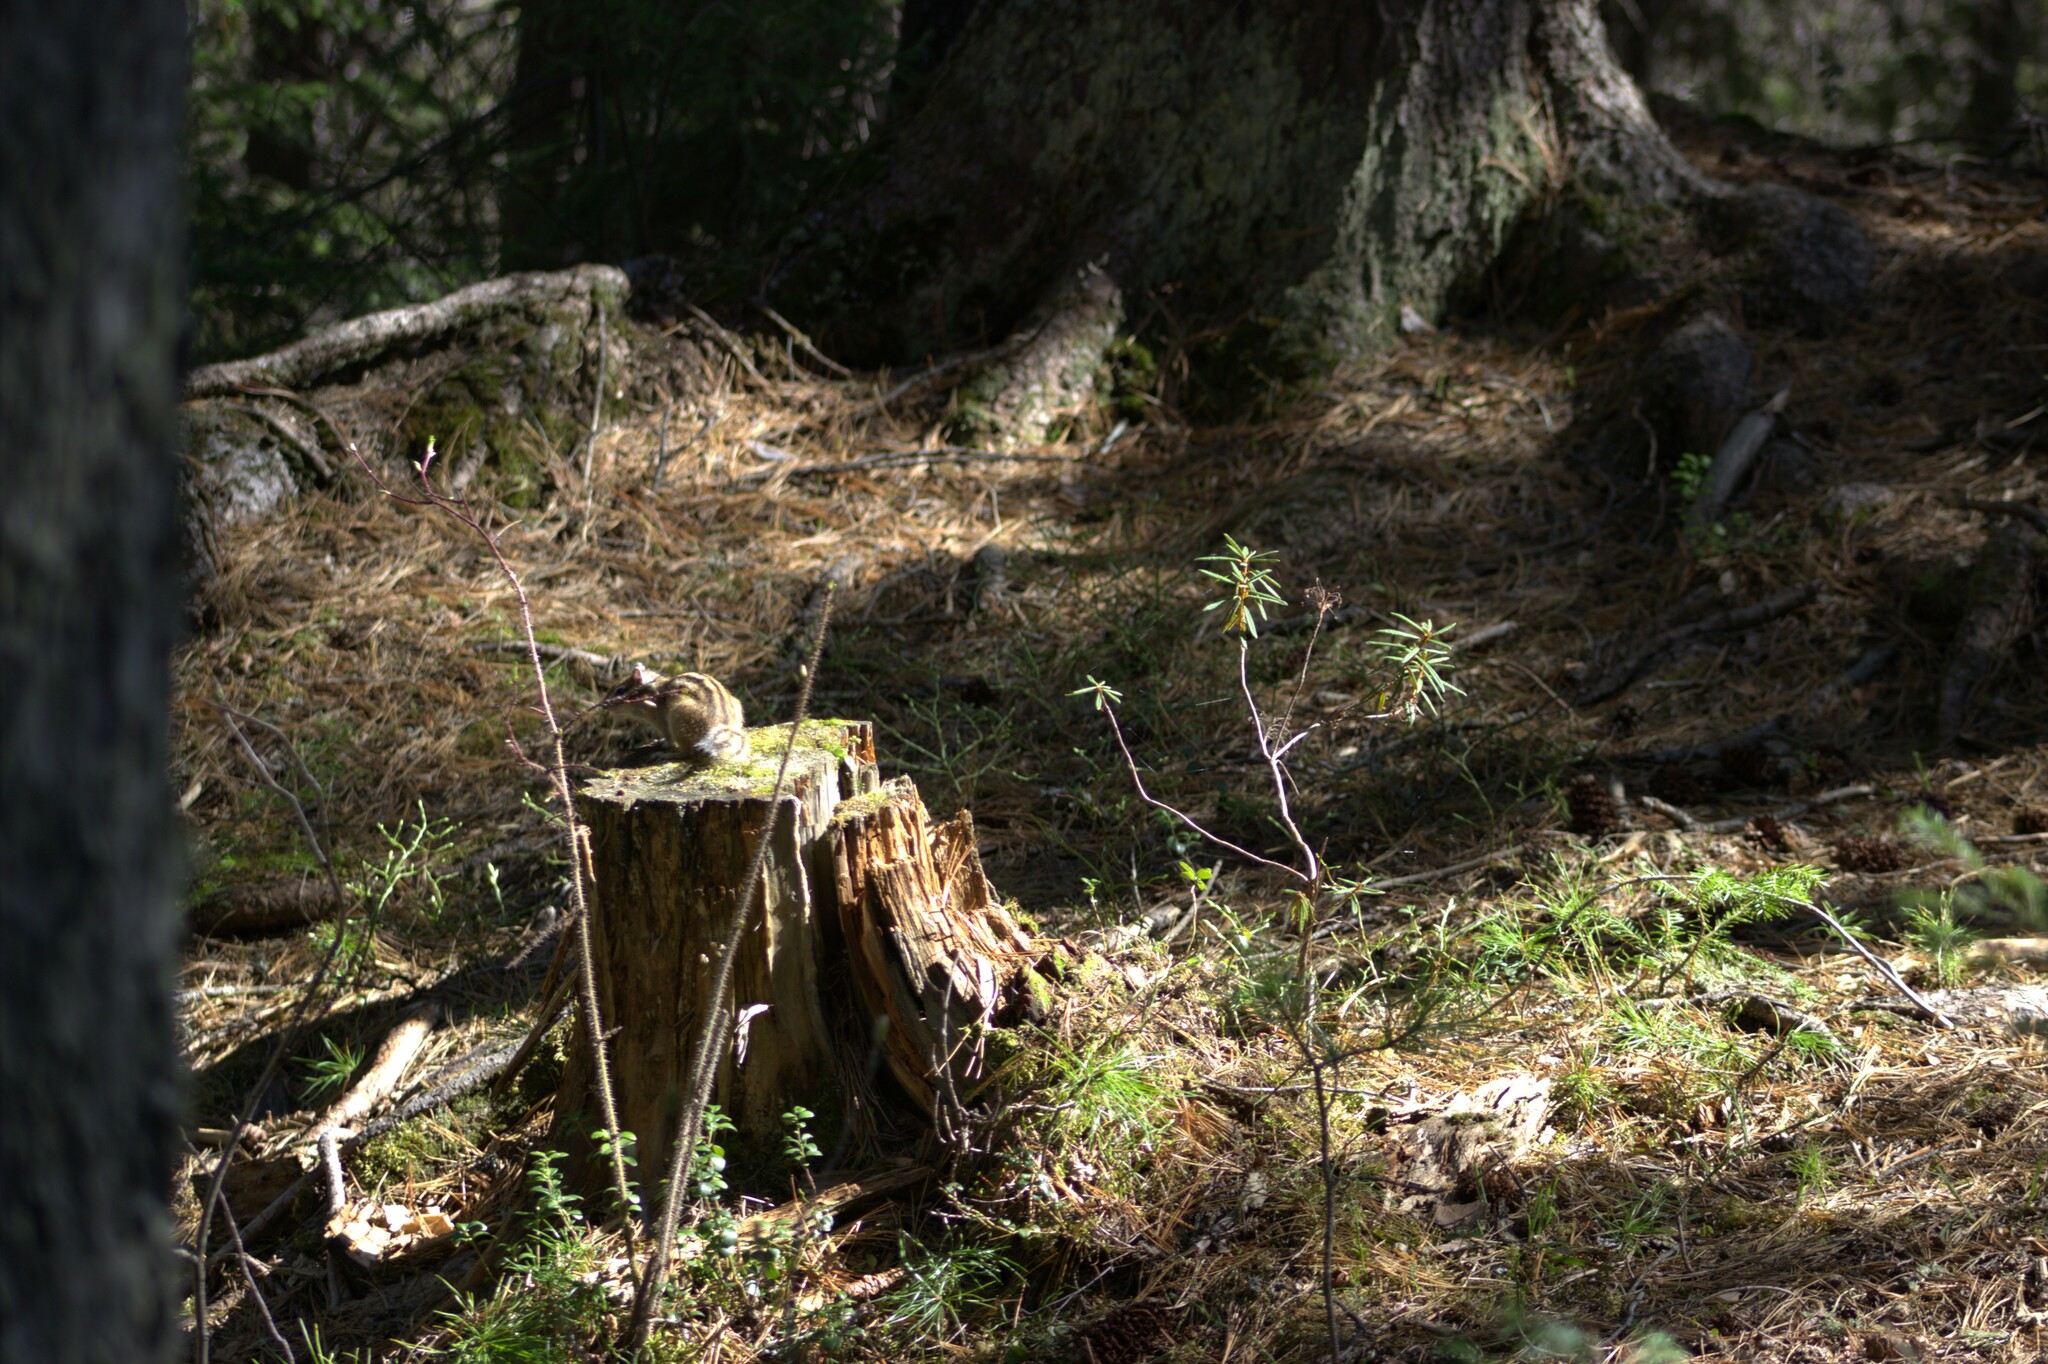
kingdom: Animalia
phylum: Chordata
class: Mammalia
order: Rodentia
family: Sciuridae
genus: Tamias
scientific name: Tamias sibiricus
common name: Siberian chipmunk
